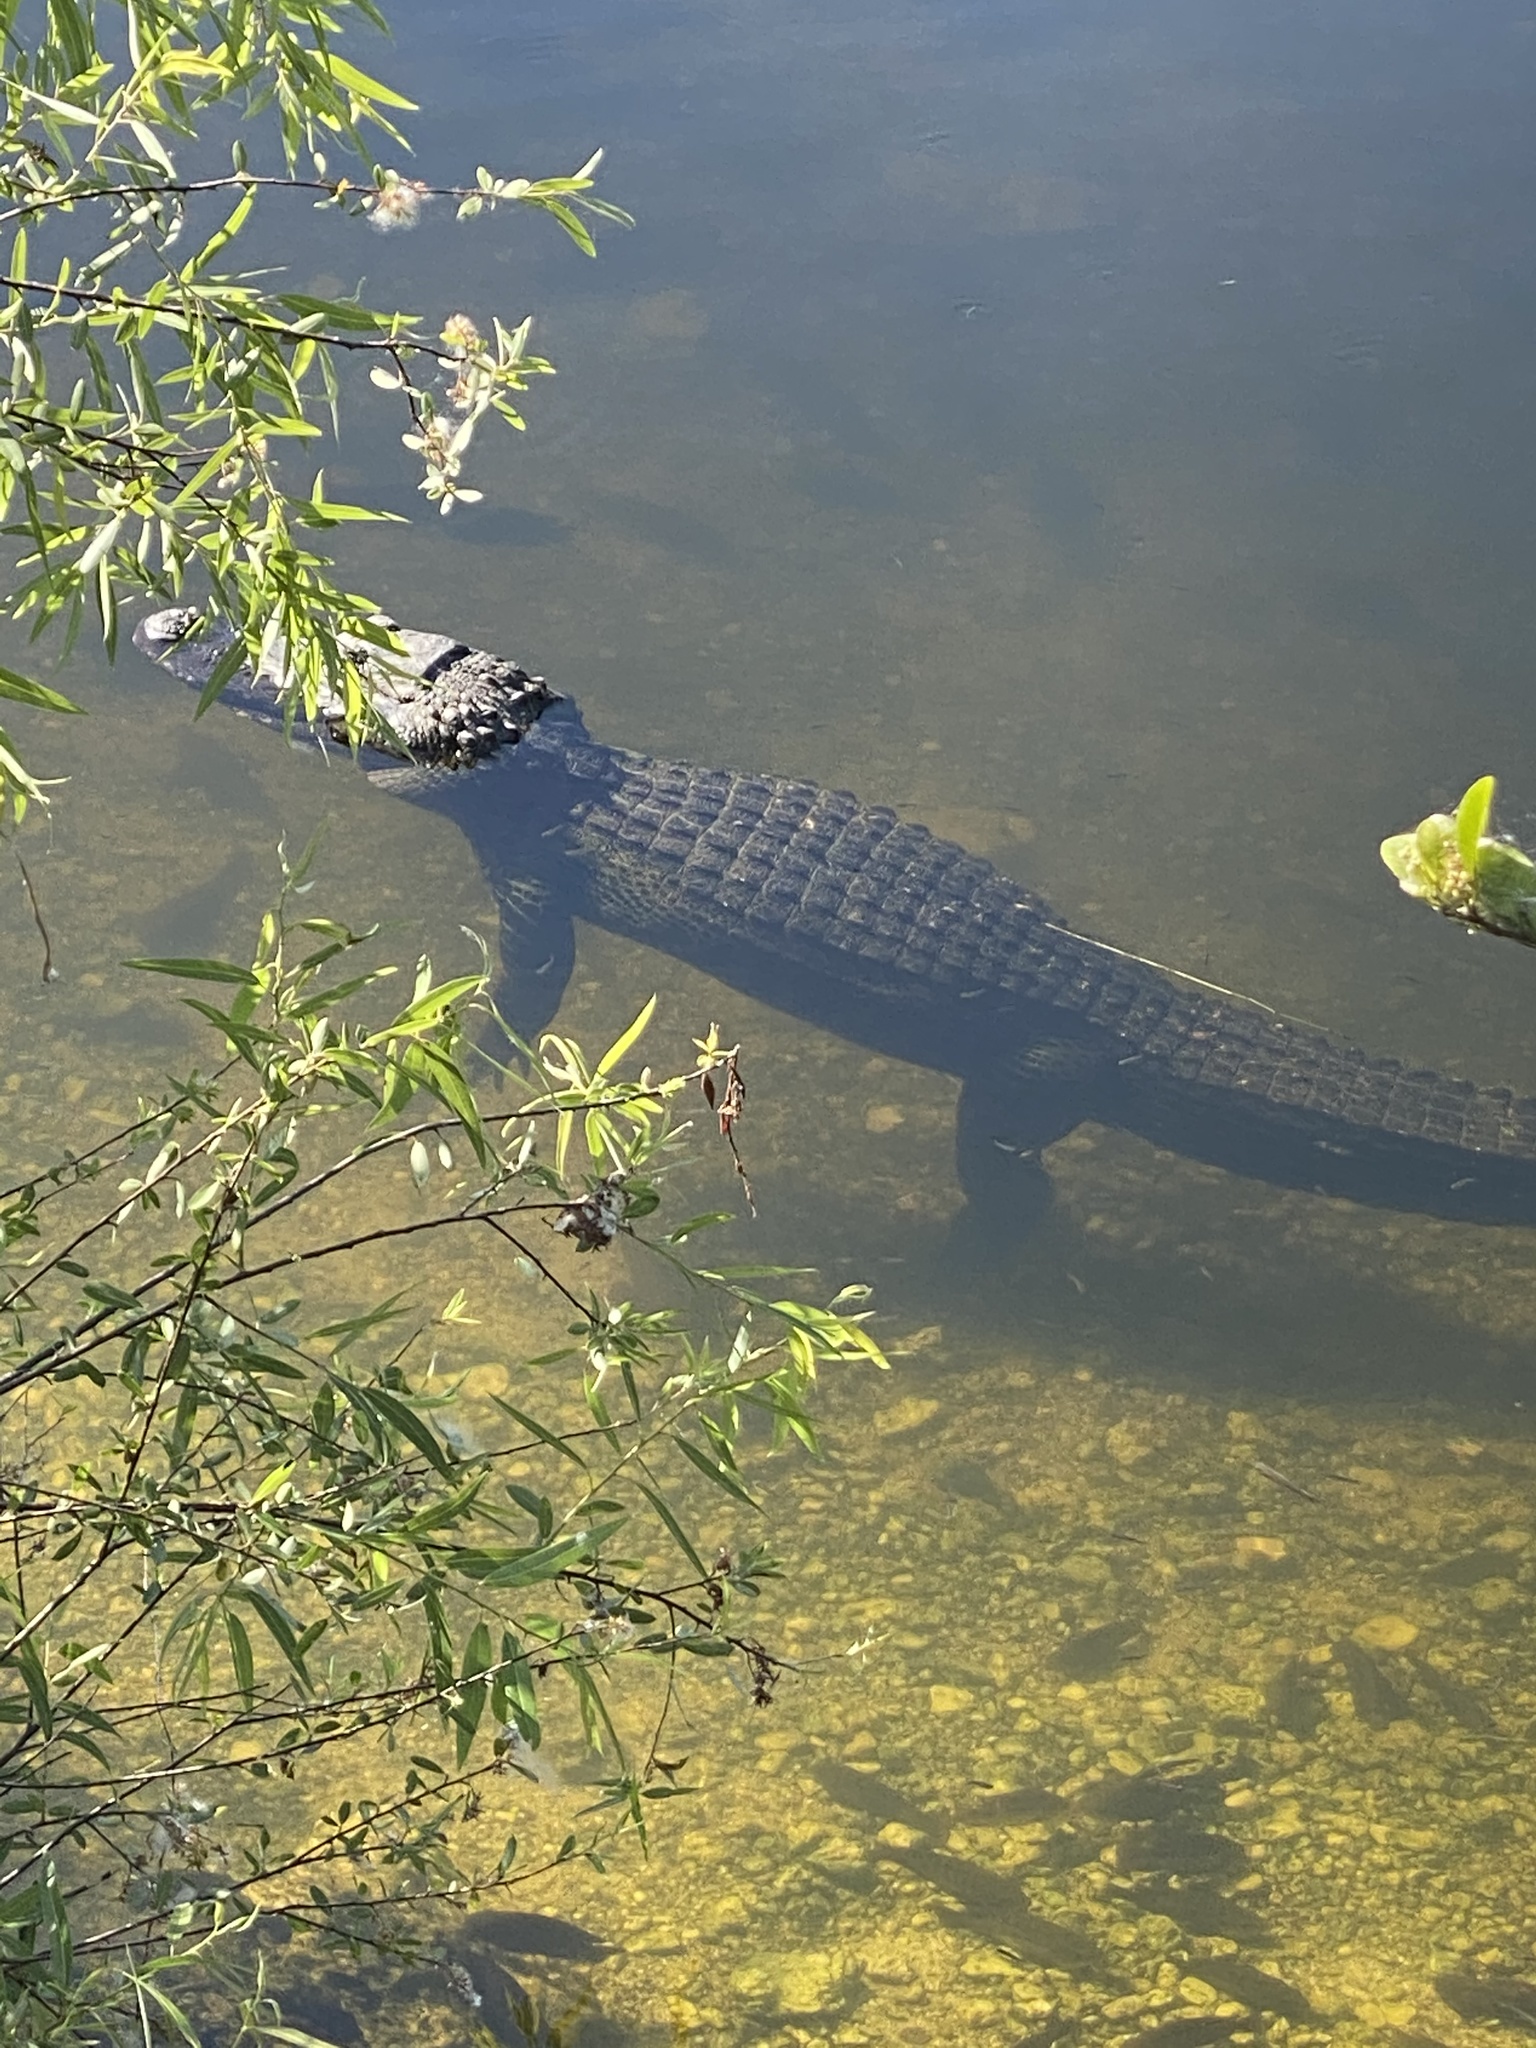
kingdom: Animalia
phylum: Chordata
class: Crocodylia
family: Alligatoridae
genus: Alligator
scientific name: Alligator mississippiensis
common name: American alligator
